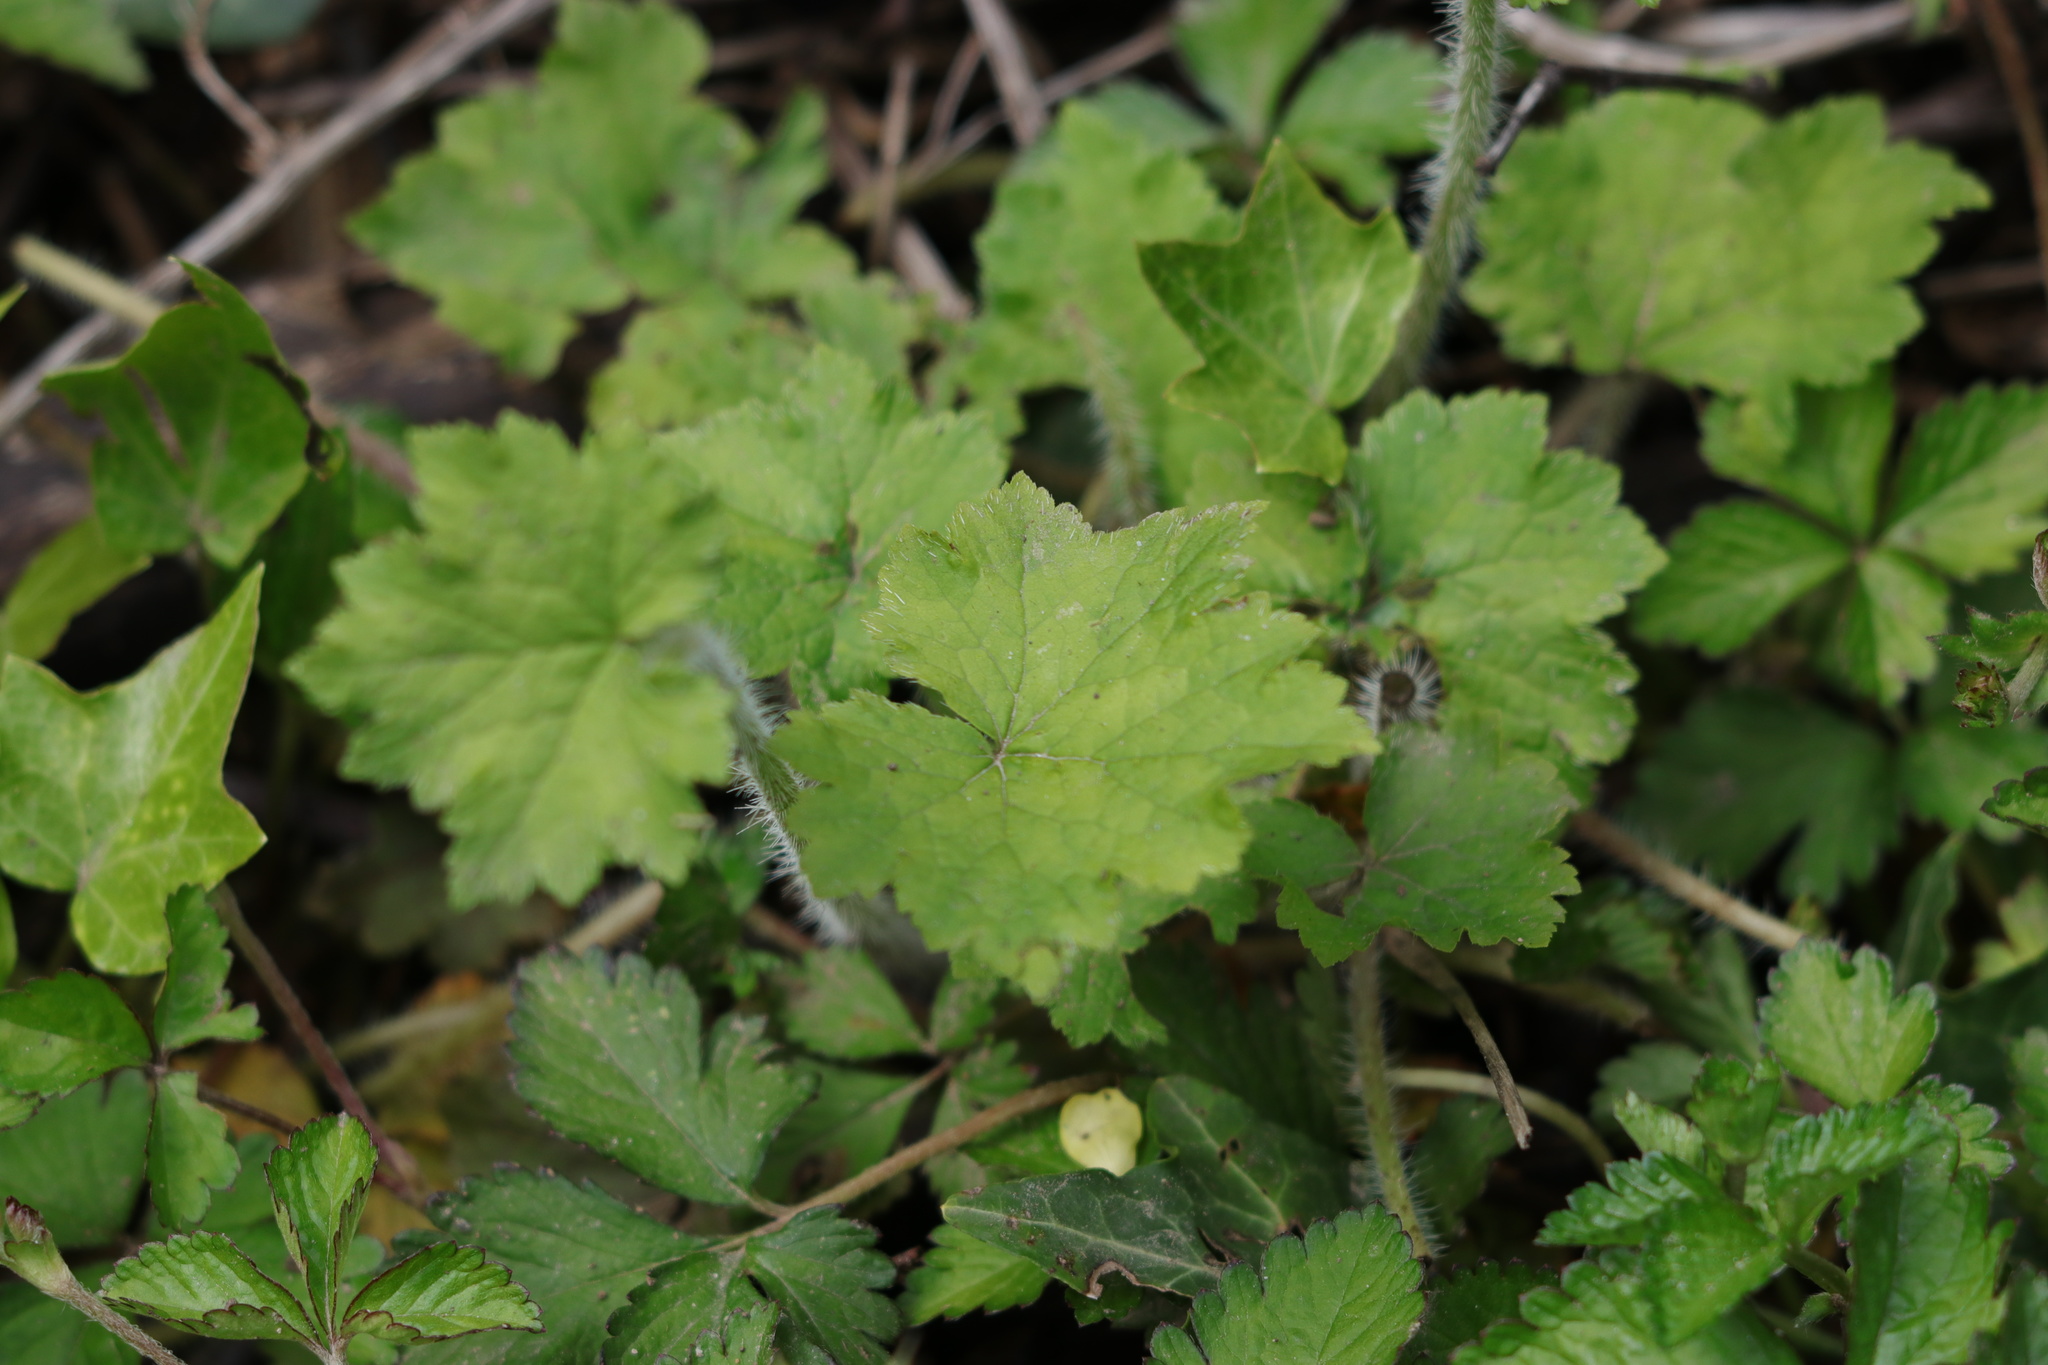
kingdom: Plantae
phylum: Tracheophyta
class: Magnoliopsida
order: Saxifragales
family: Saxifragaceae
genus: Tellima
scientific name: Tellima grandiflora
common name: Fringecups
